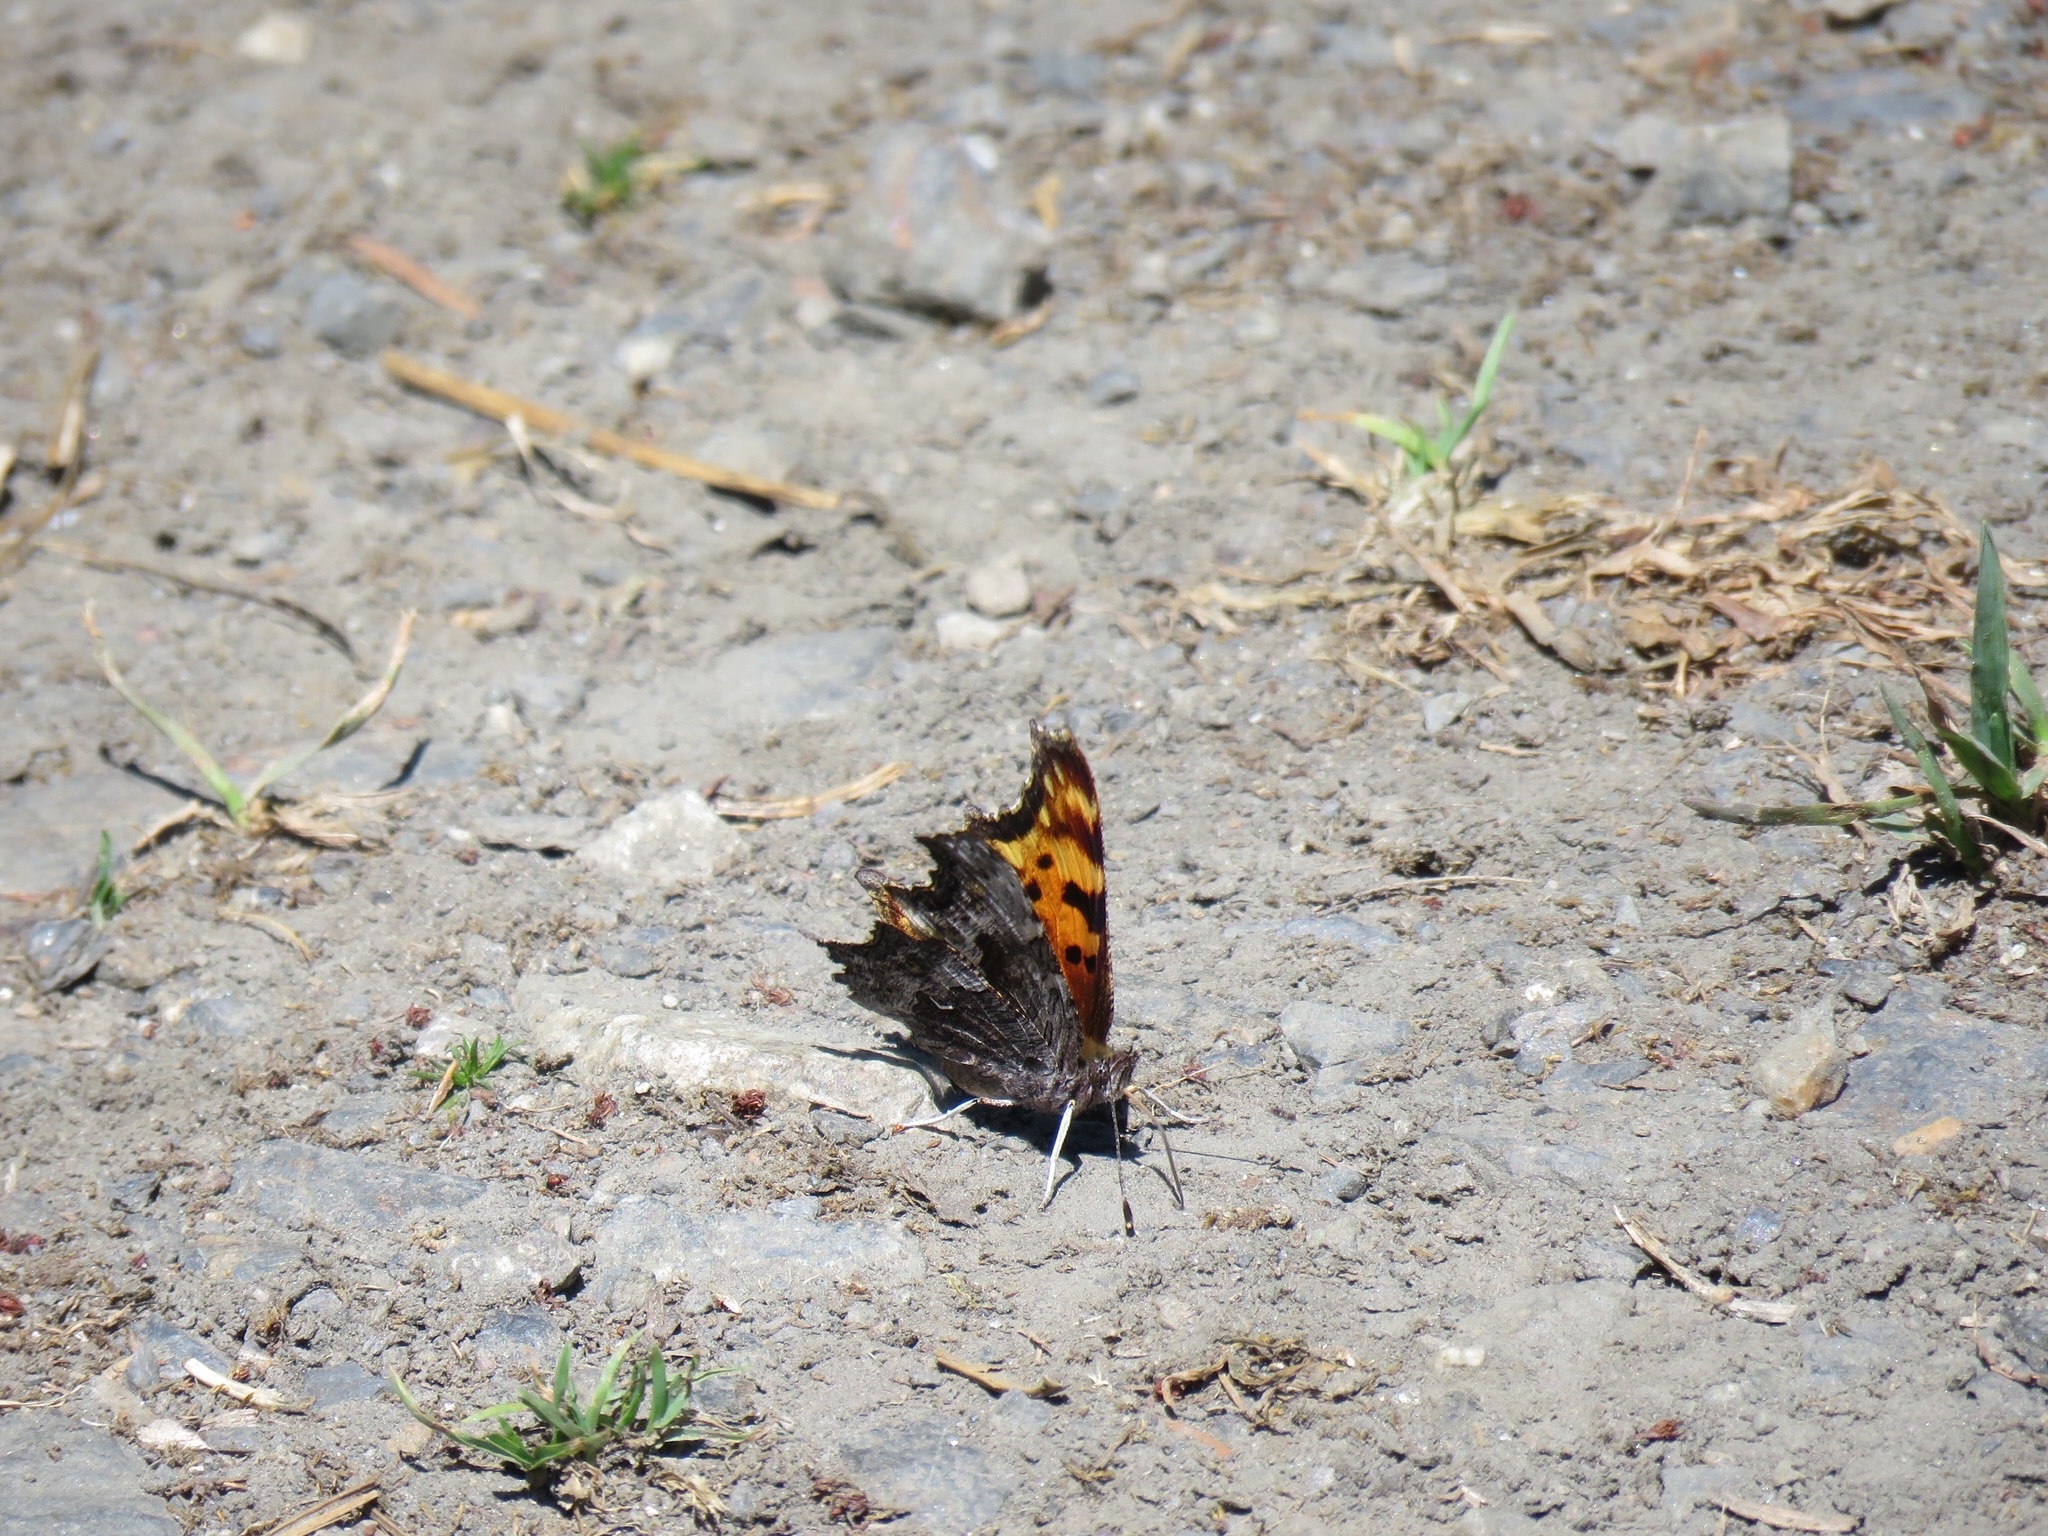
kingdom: Animalia
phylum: Arthropoda
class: Insecta
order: Lepidoptera
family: Nymphalidae
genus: Polygonia
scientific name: Polygonia gracilis
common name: Hoary comma
